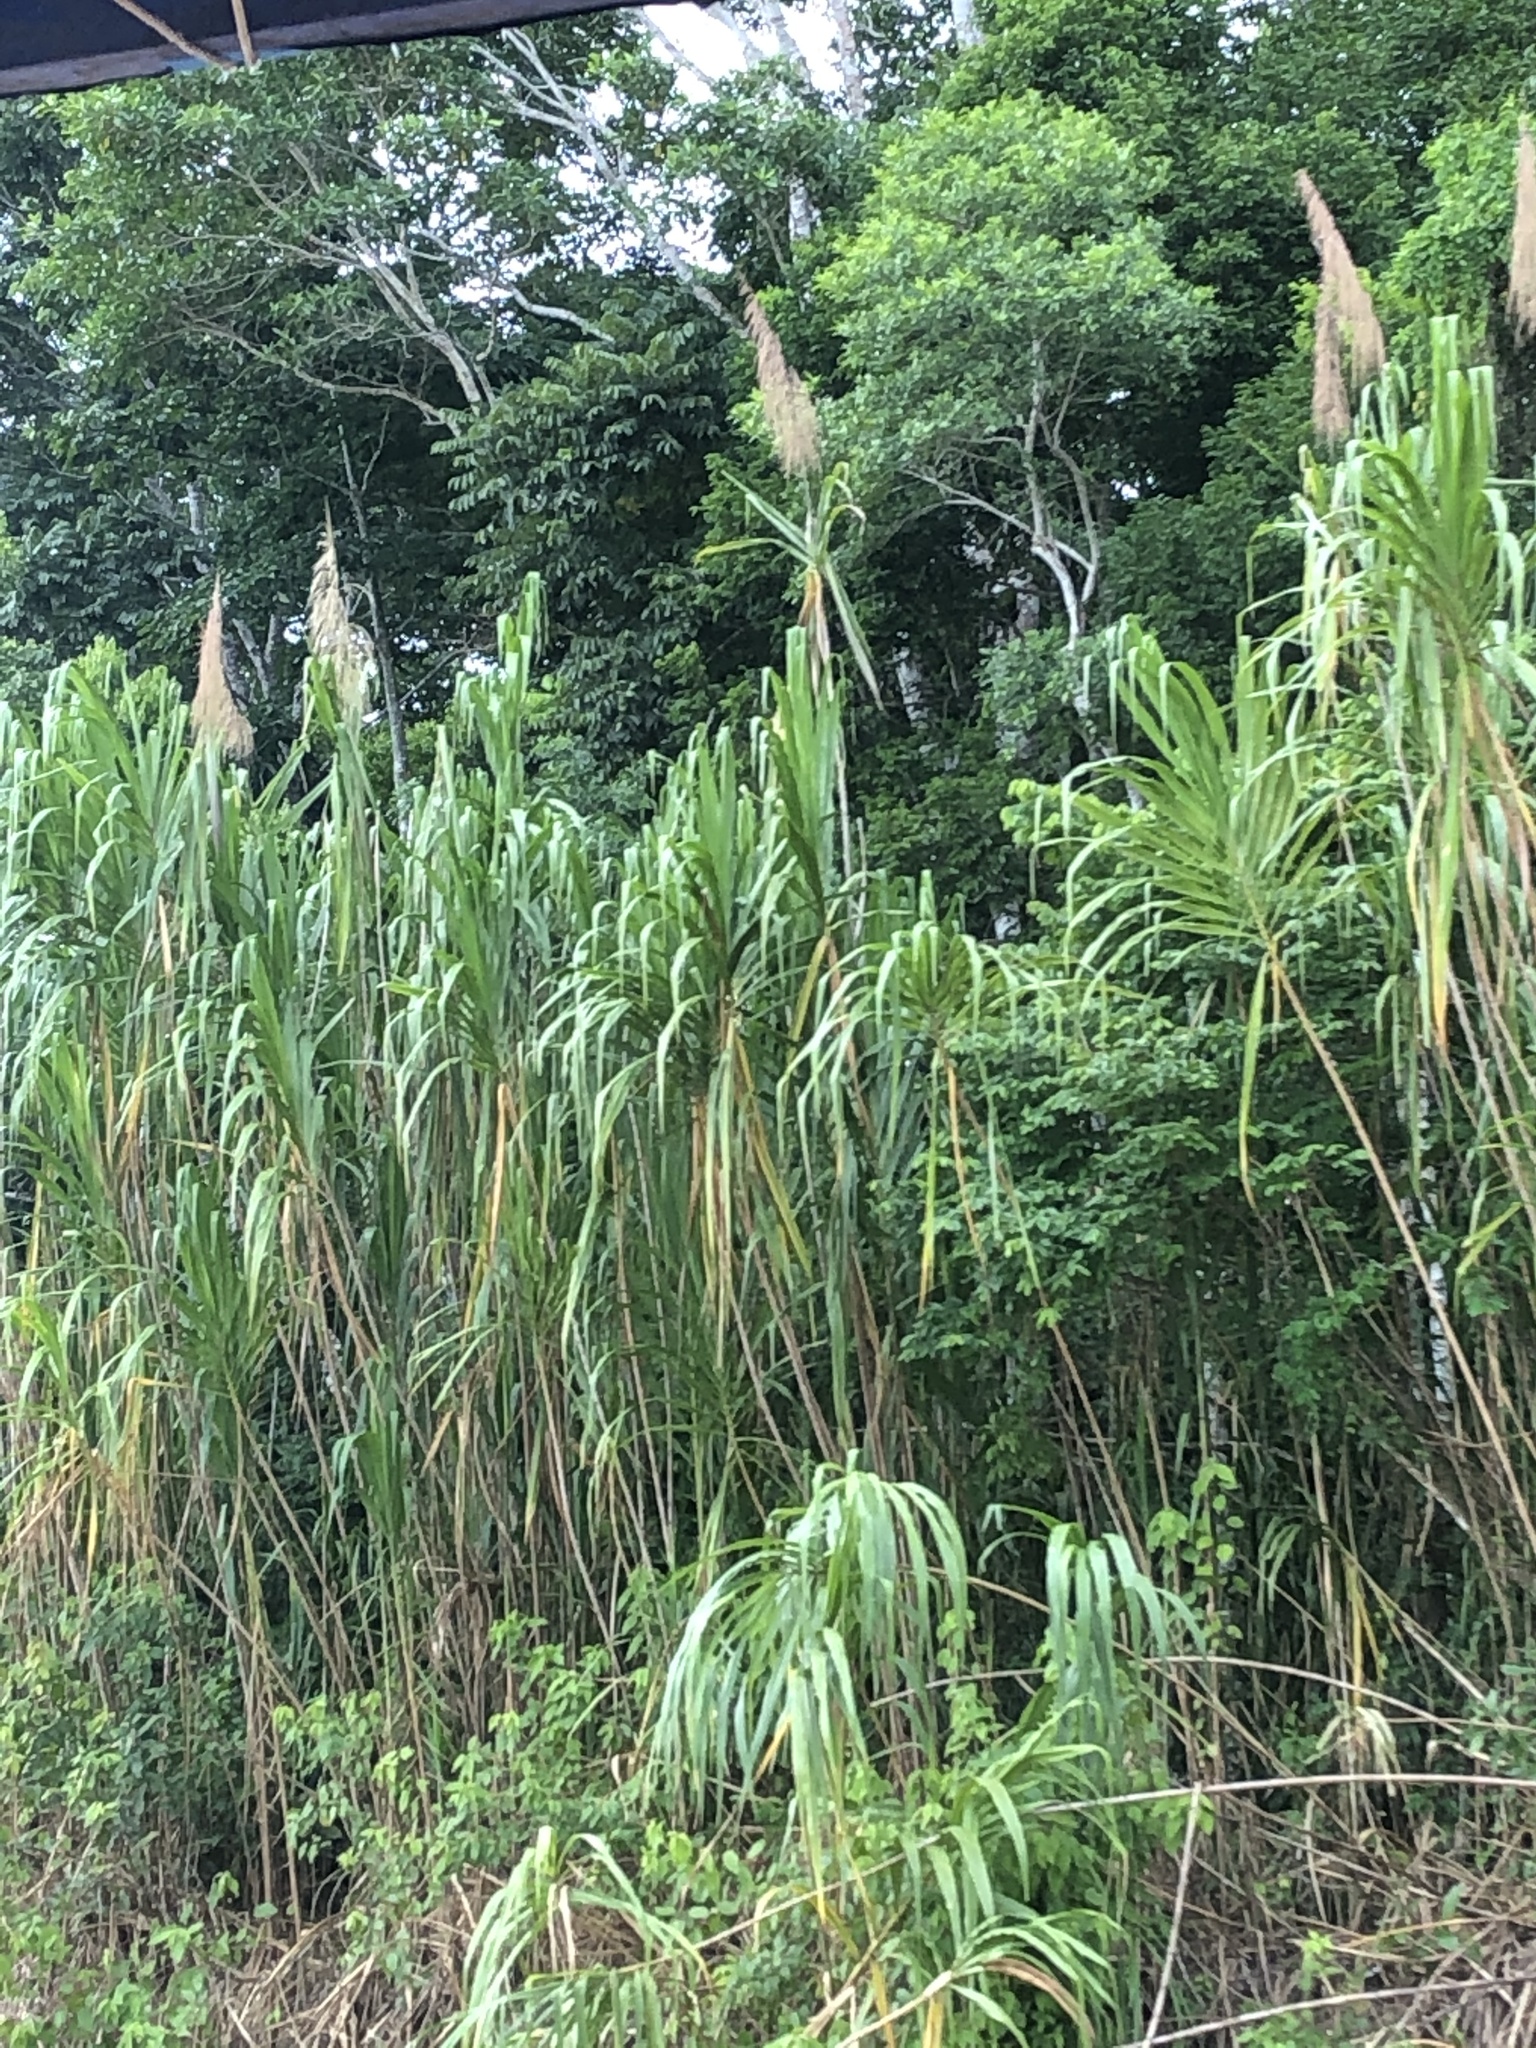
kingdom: Plantae
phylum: Tracheophyta
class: Liliopsida
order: Poales
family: Poaceae
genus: Gynerium
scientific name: Gynerium sagittatum
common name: Wild cane
